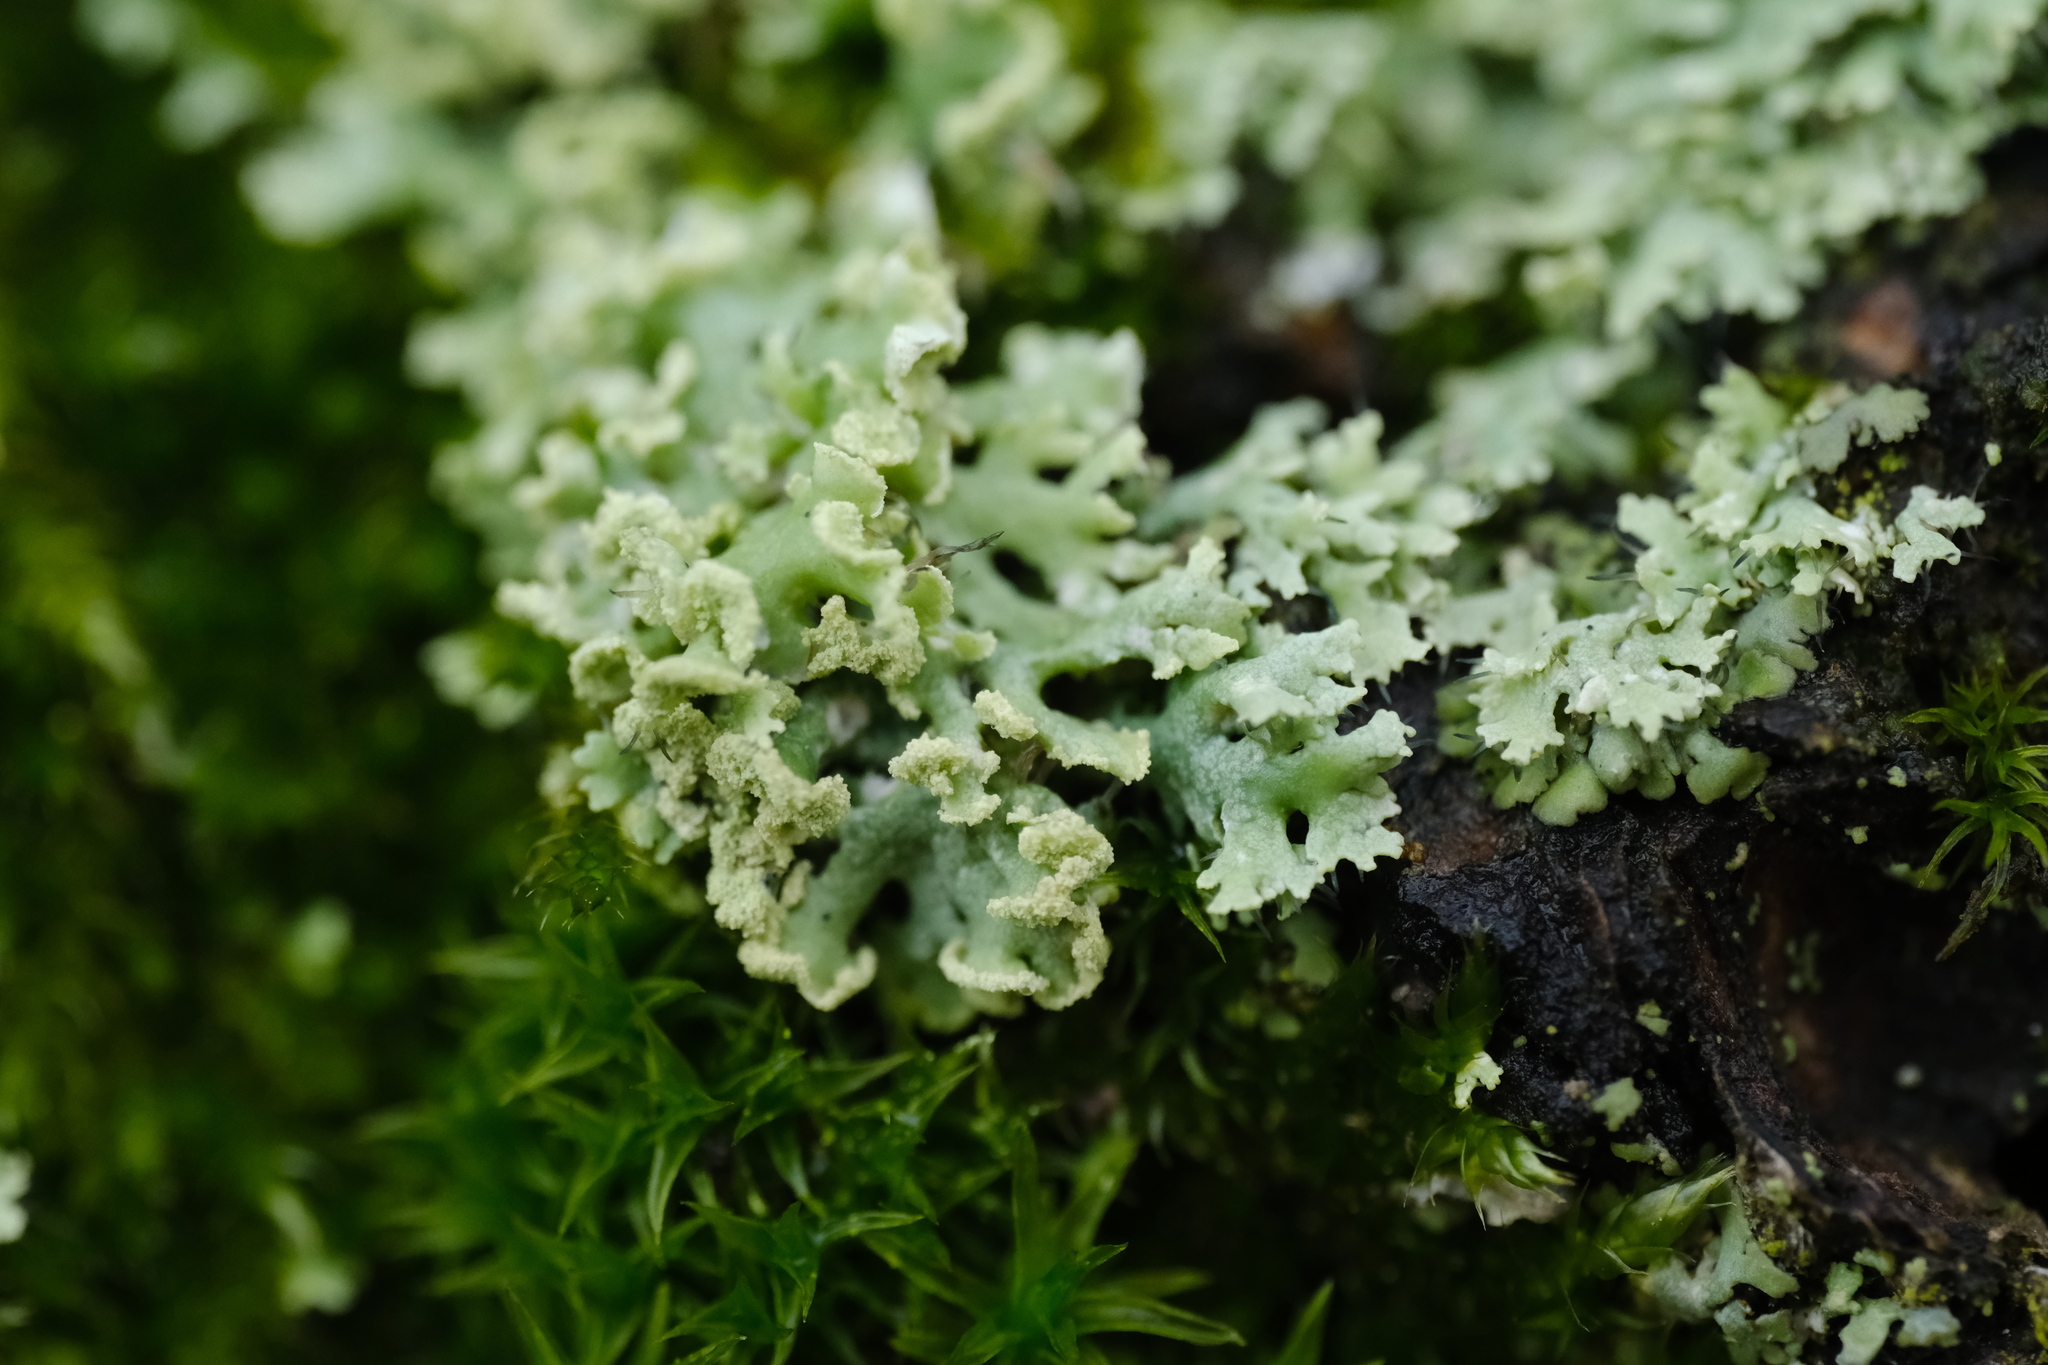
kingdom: Fungi
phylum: Ascomycota
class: Lecanoromycetes
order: Caliciales
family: Physciaceae
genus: Physcia
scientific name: Physcia tenella
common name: Fringed rosette lichen
